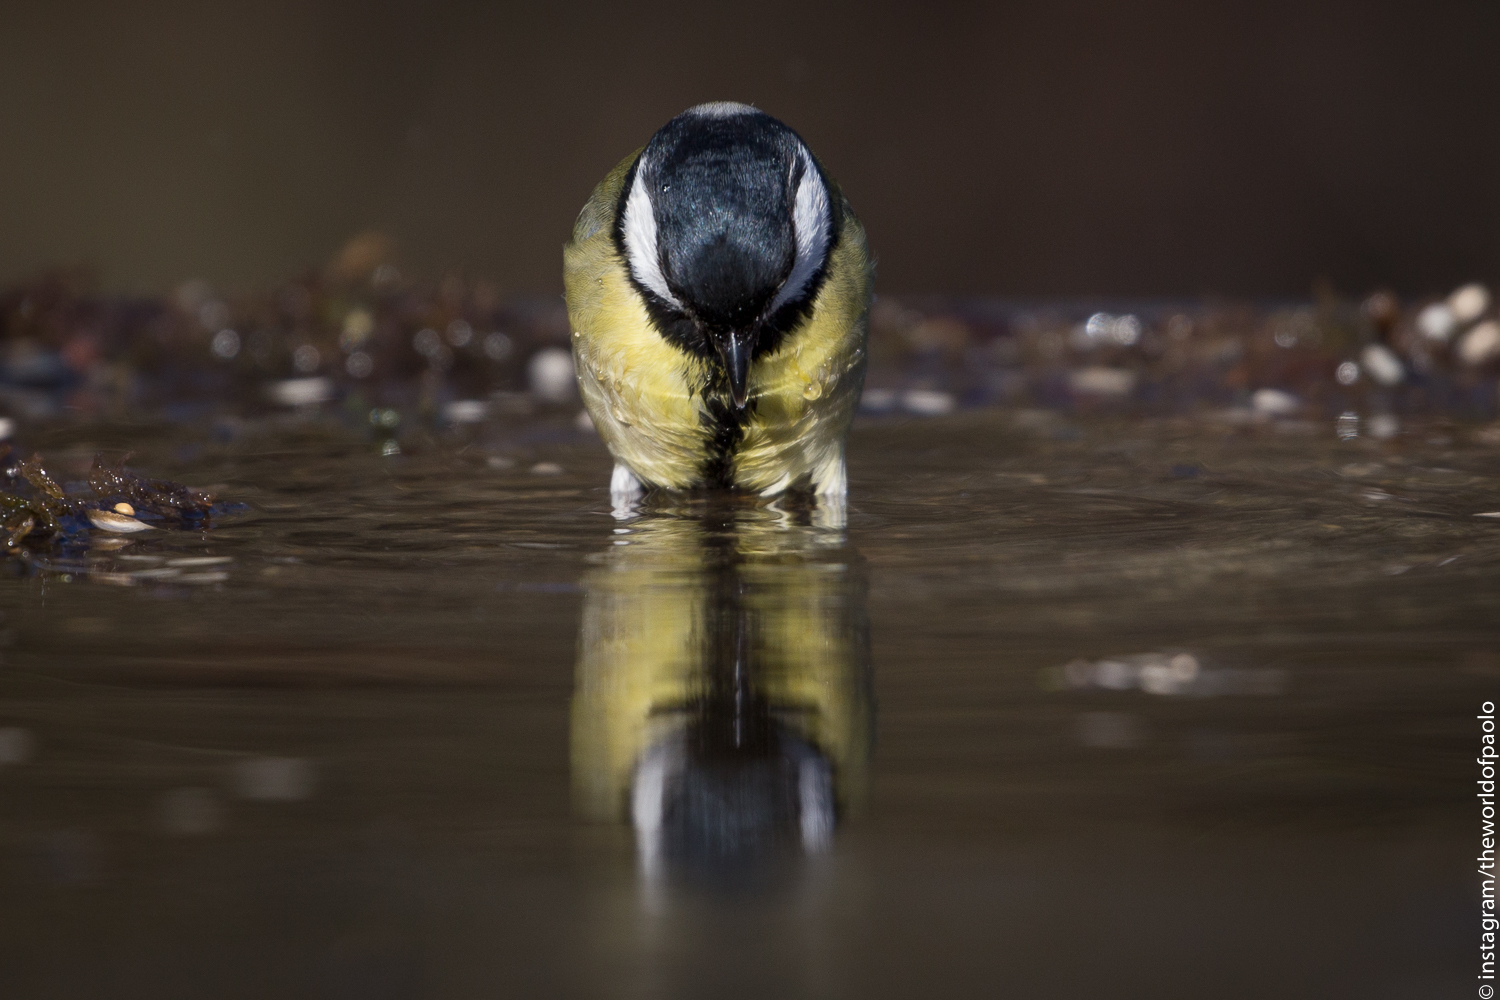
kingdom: Animalia
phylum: Chordata
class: Aves
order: Passeriformes
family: Paridae
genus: Parus
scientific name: Parus major
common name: Great tit
